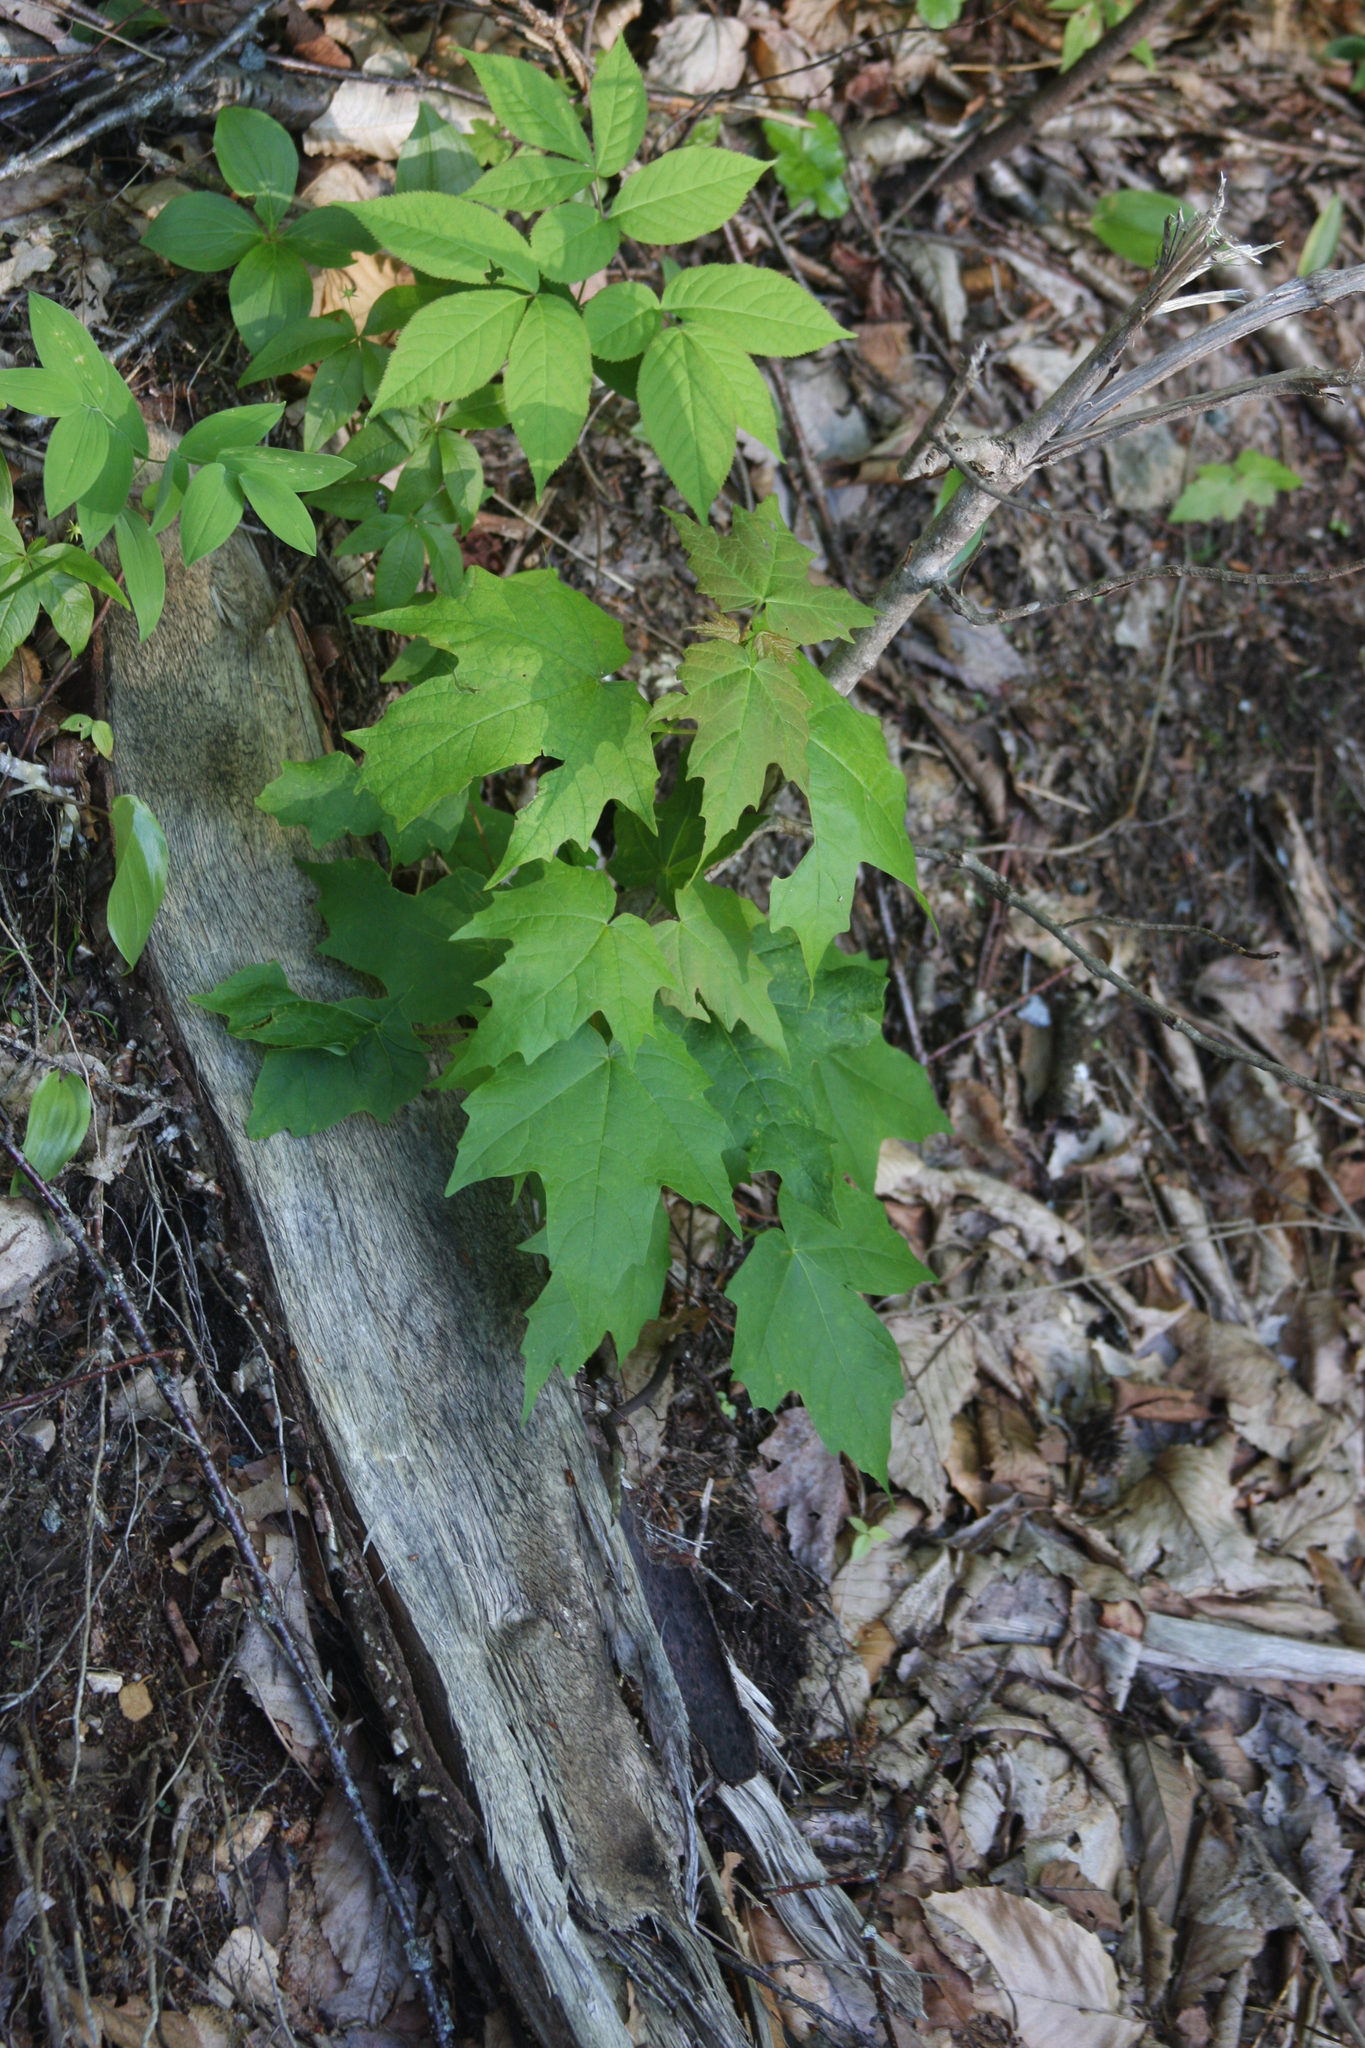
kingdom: Plantae
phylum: Tracheophyta
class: Magnoliopsida
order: Sapindales
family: Sapindaceae
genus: Acer
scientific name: Acer rubrum
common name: Red maple
